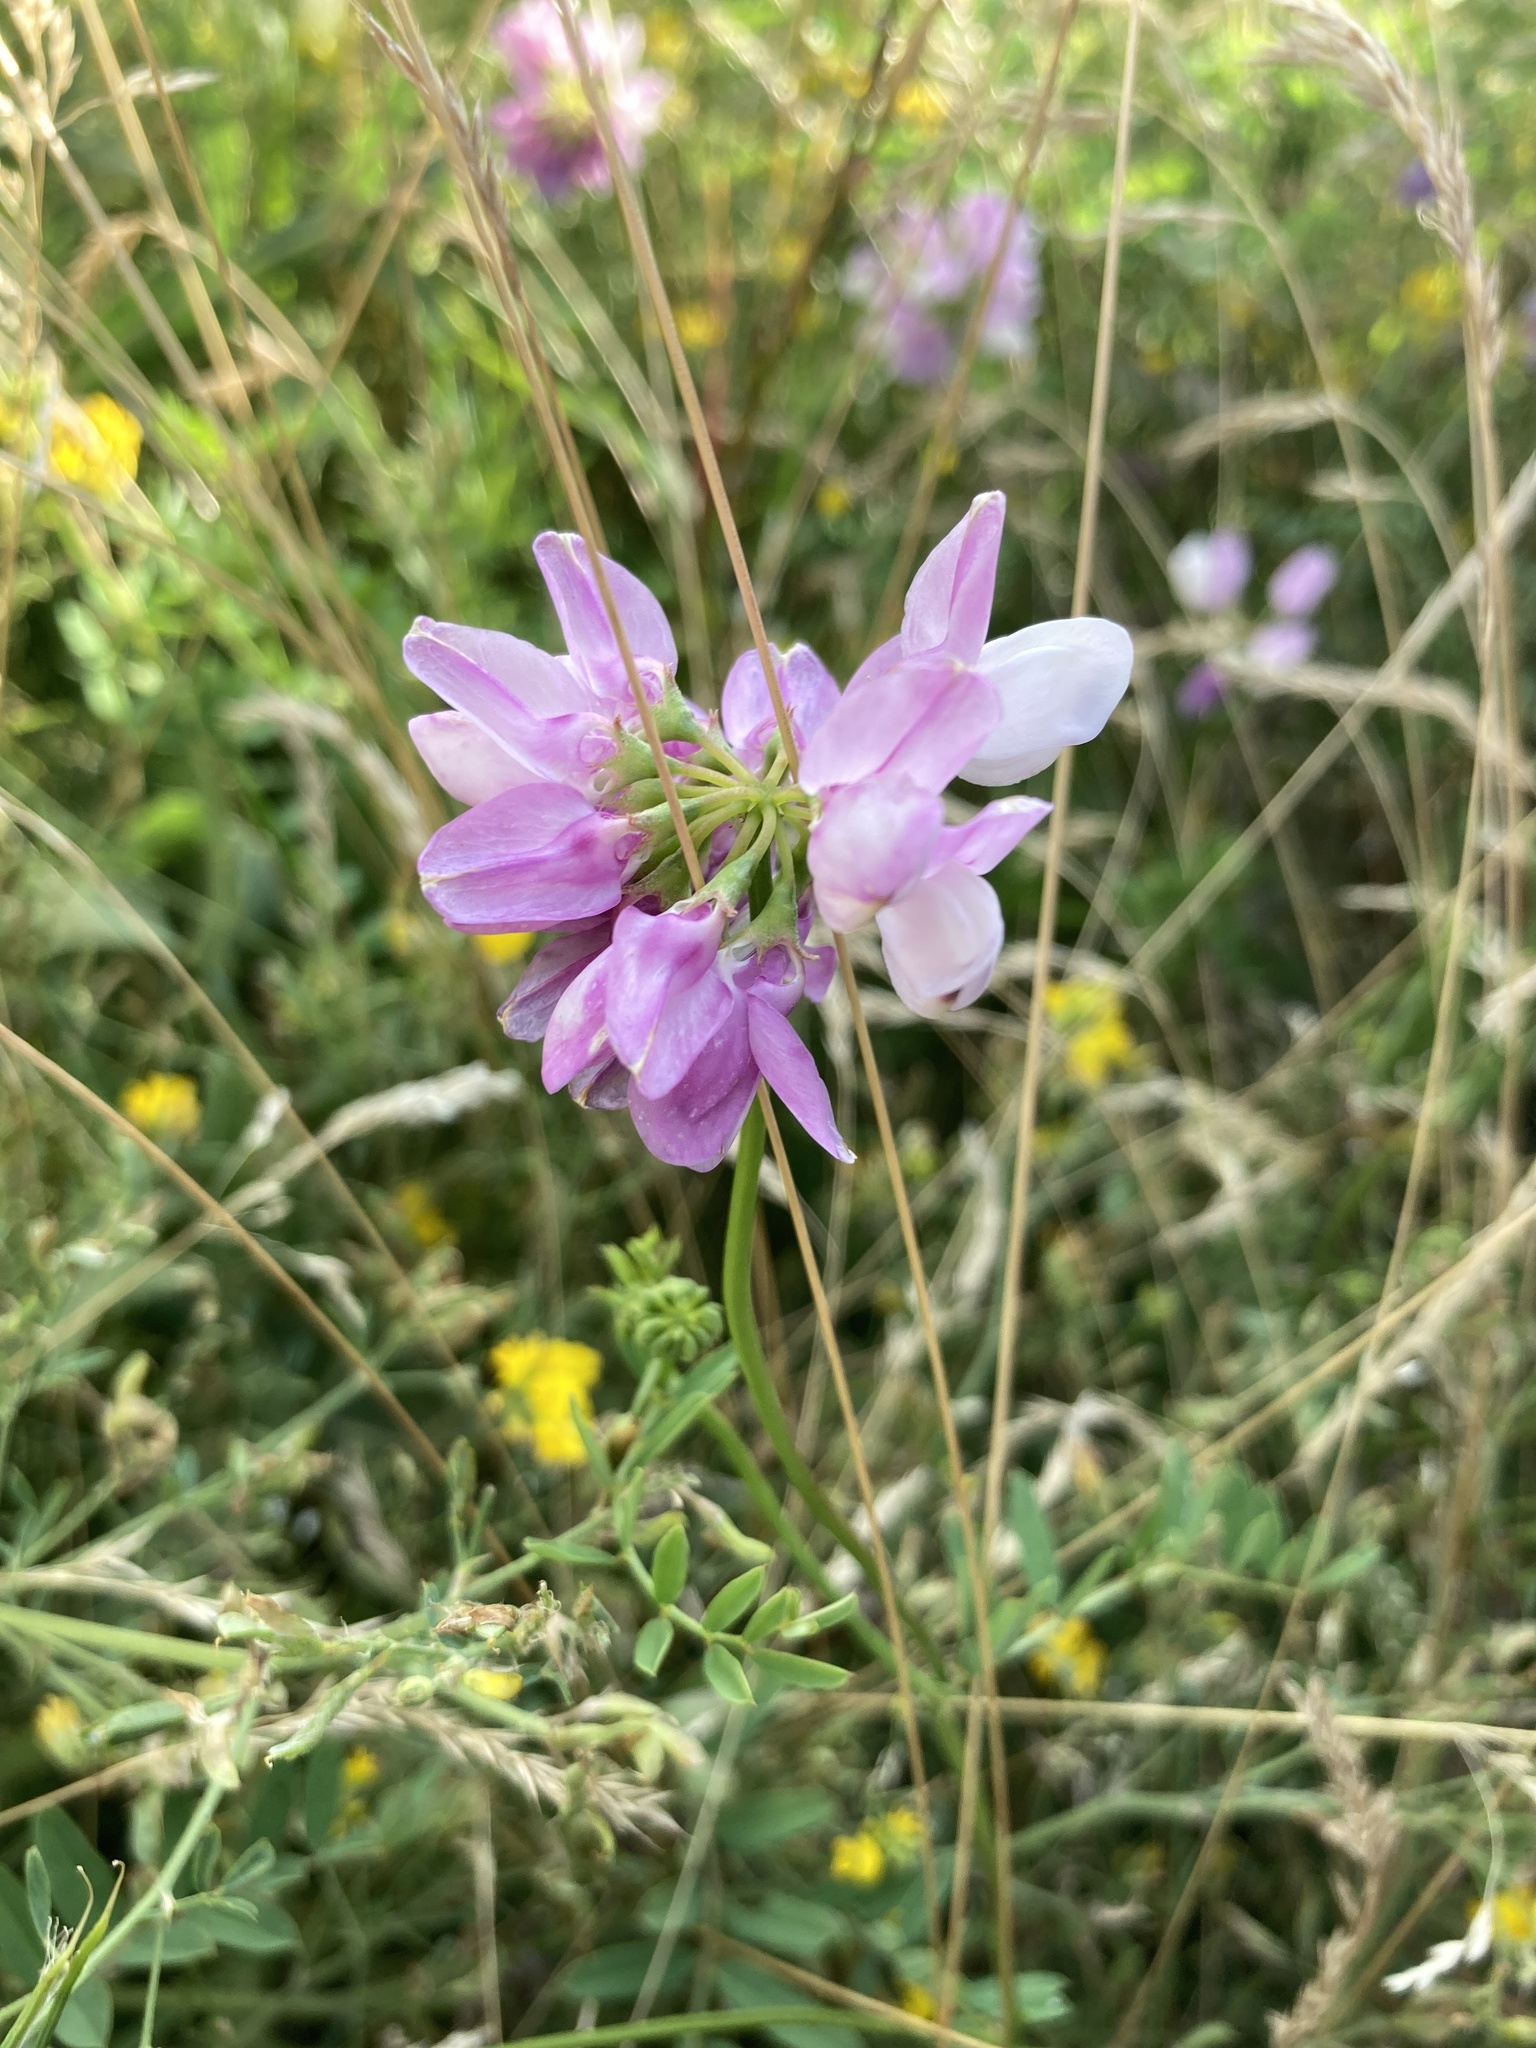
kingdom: Plantae
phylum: Tracheophyta
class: Magnoliopsida
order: Fabales
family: Fabaceae
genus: Coronilla
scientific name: Coronilla varia
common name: Crownvetch
